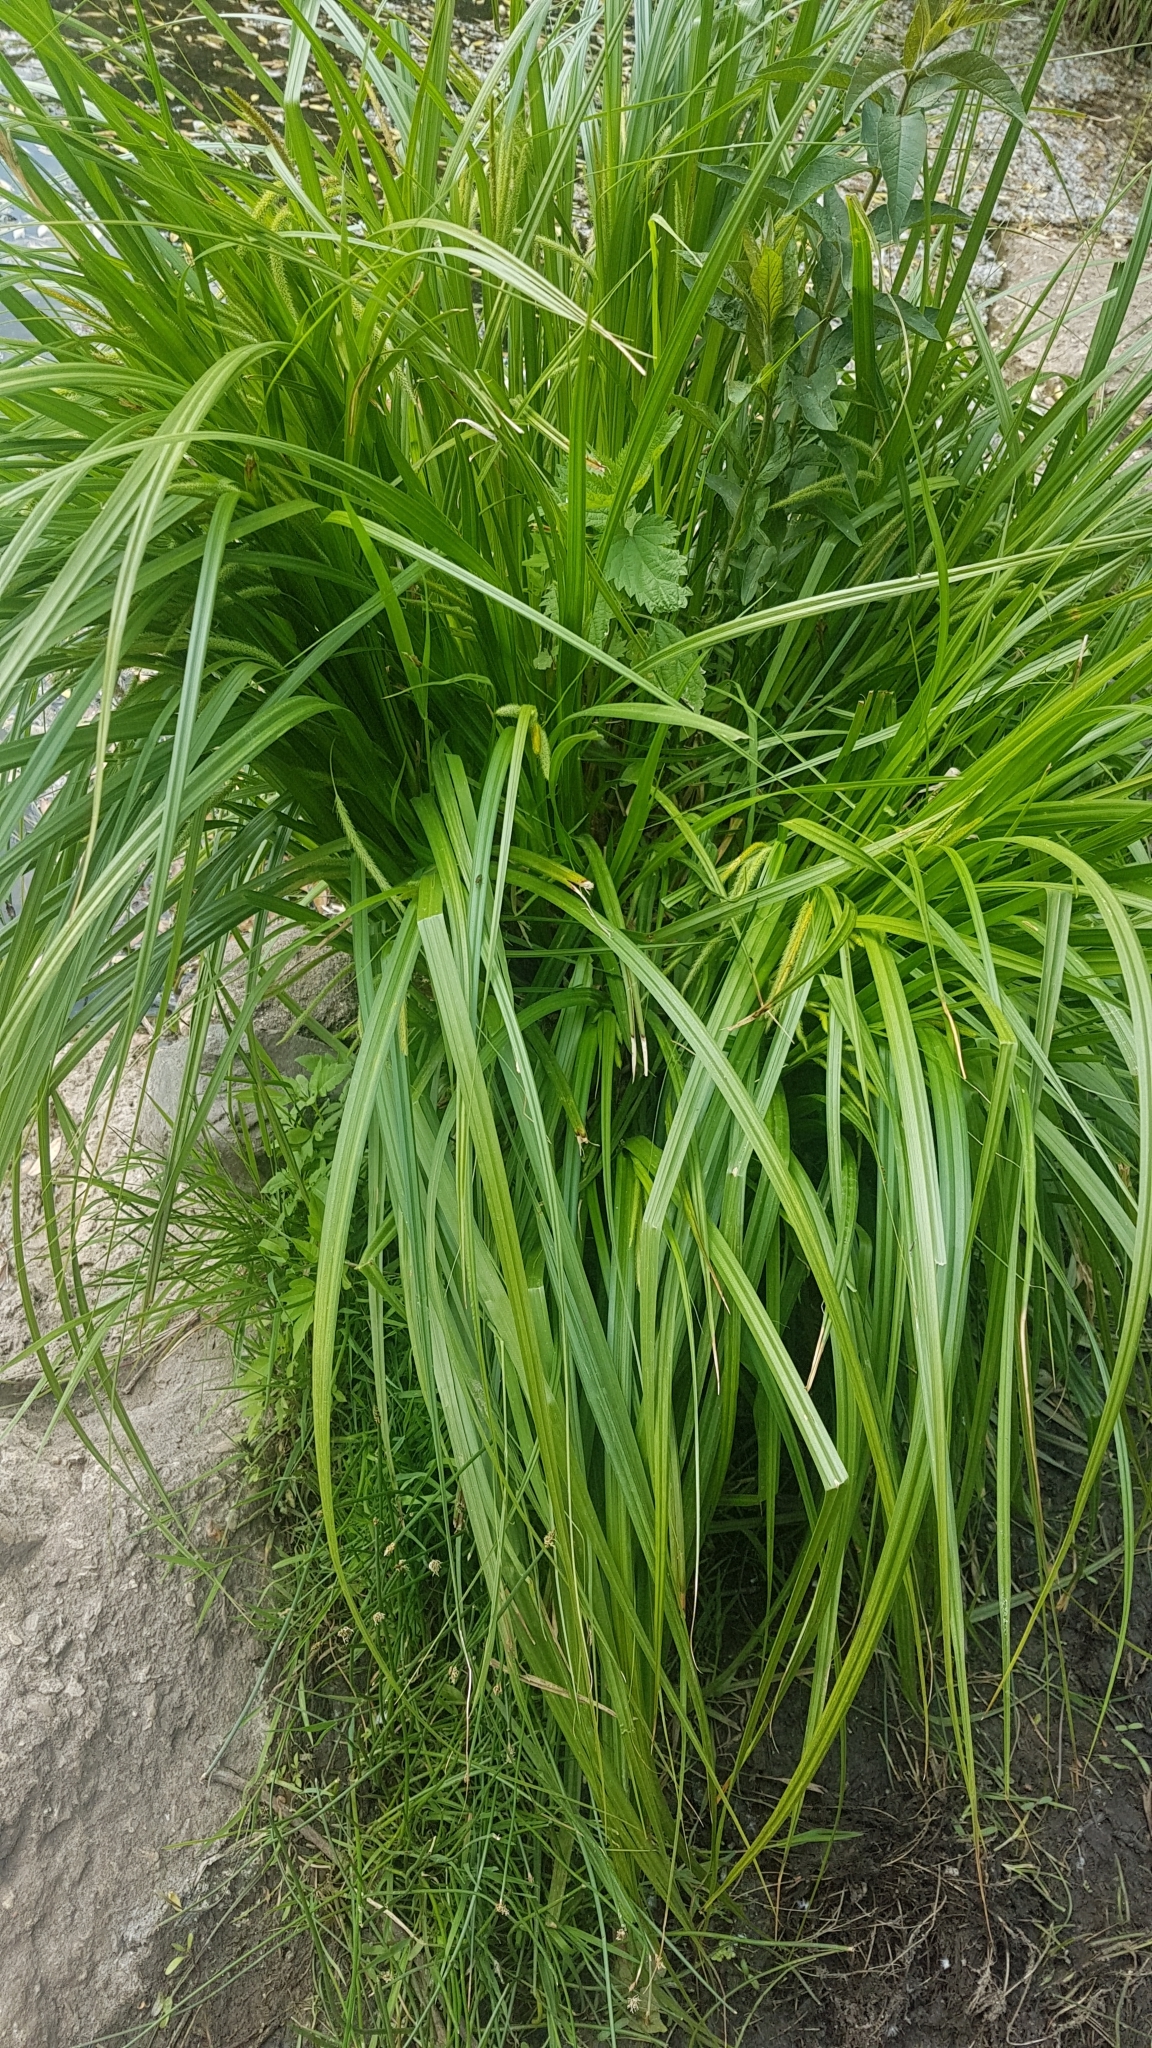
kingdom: Plantae
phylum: Tracheophyta
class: Liliopsida
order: Poales
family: Cyperaceae
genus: Carex
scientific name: Carex sylvatica
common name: Wood-sedge
